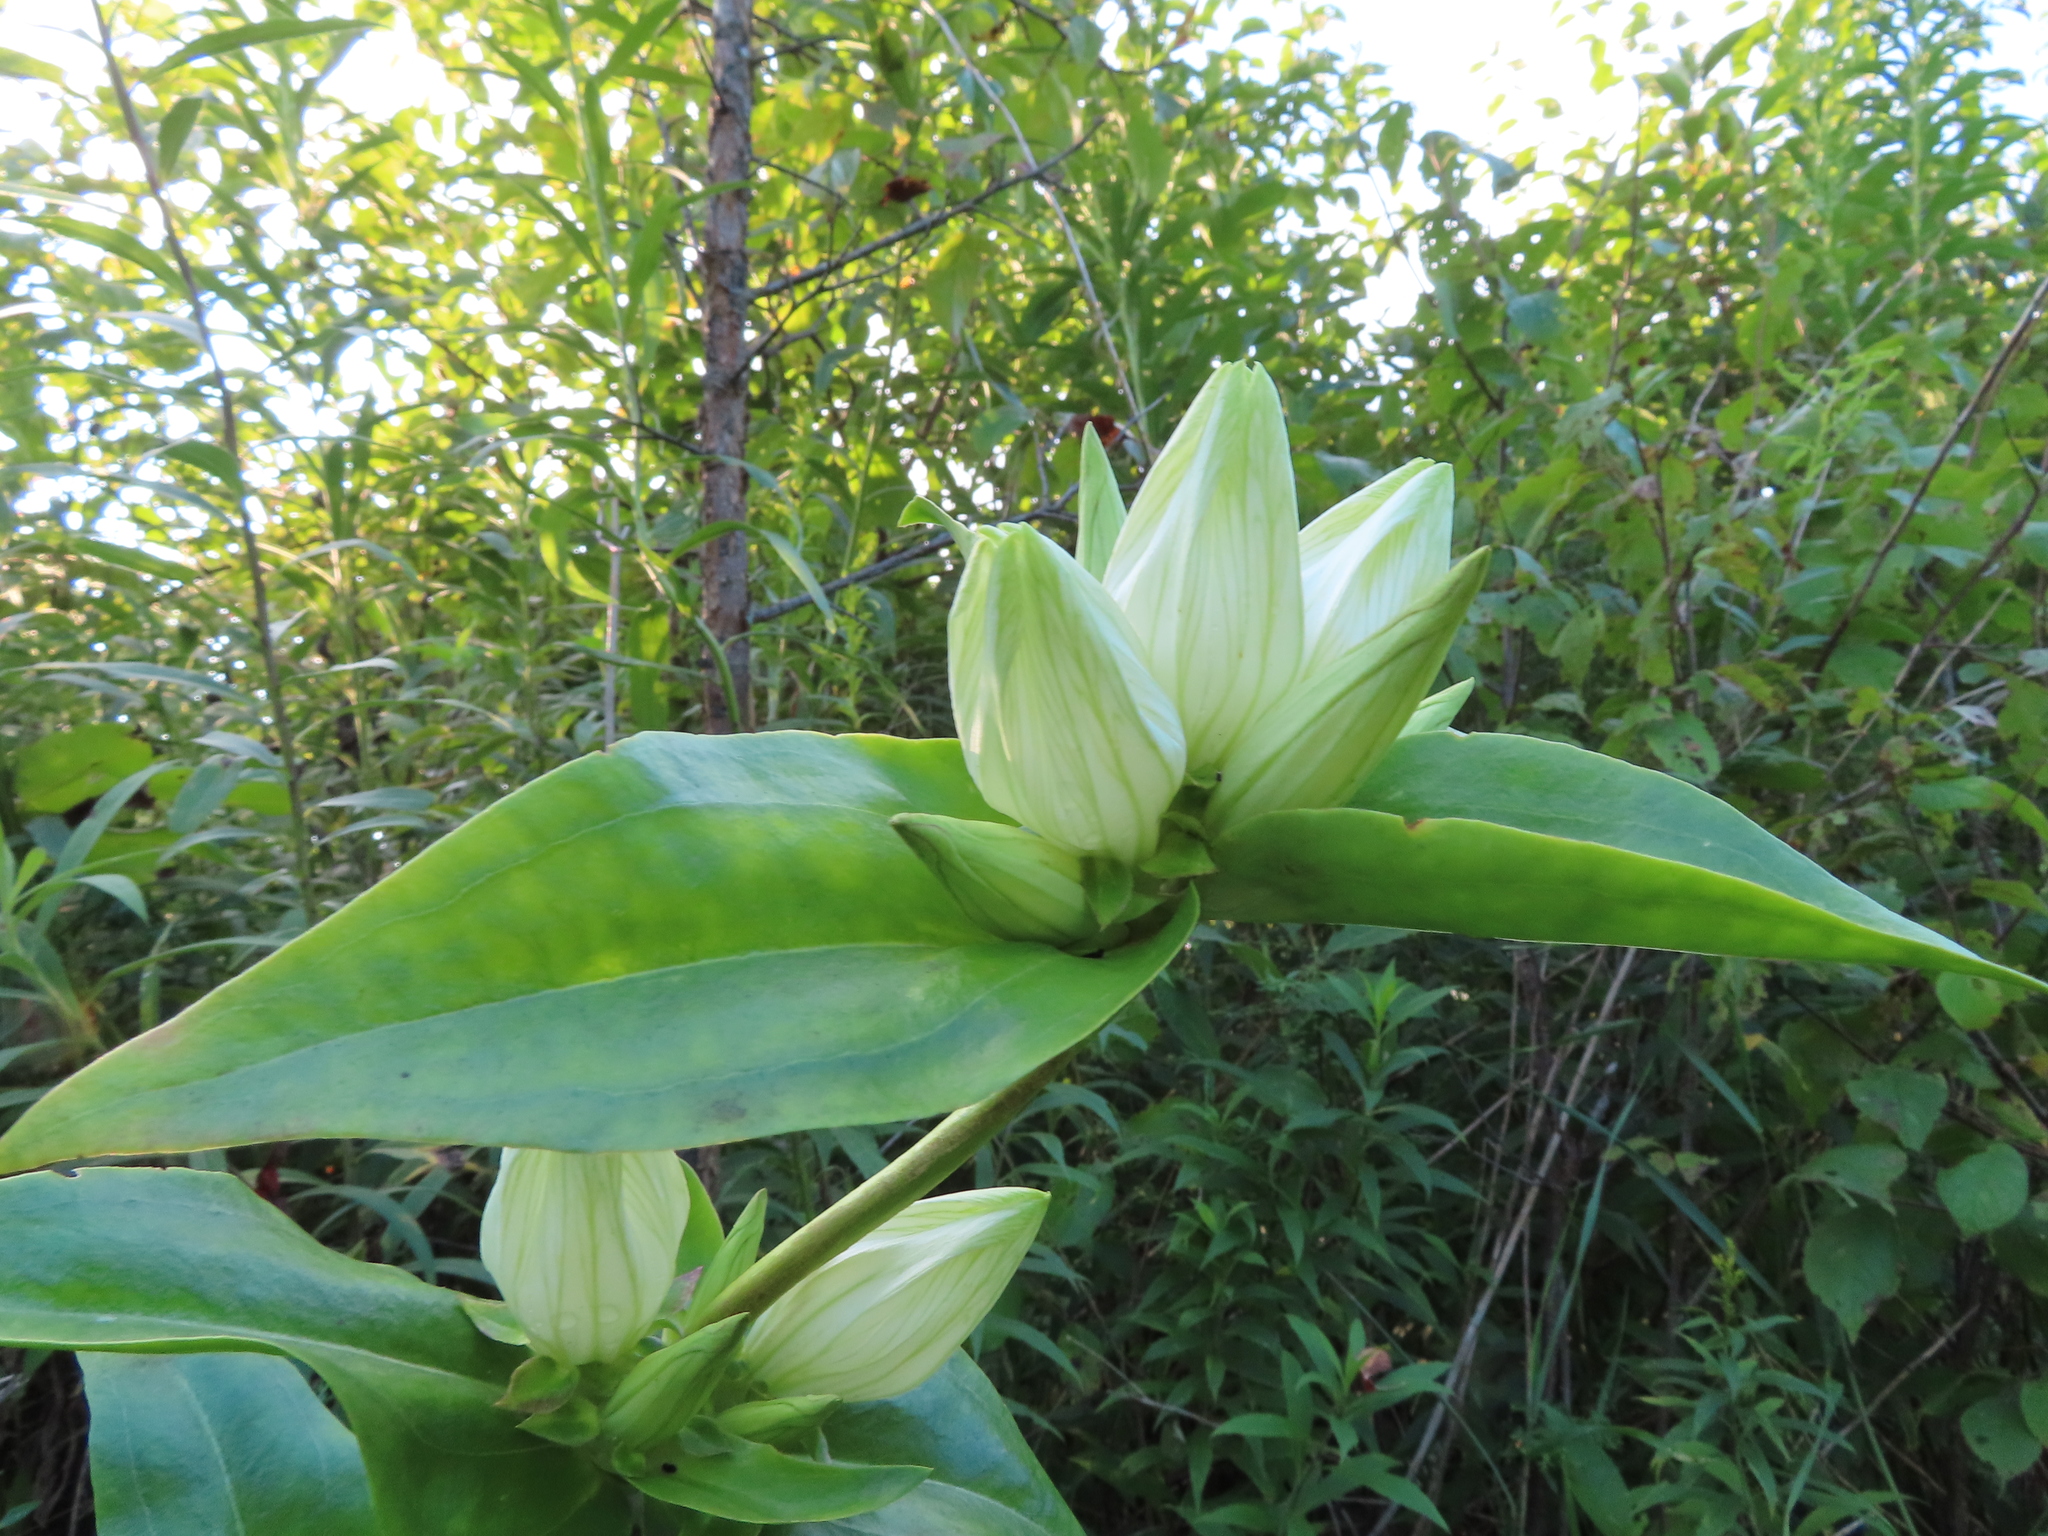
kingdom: Plantae
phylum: Tracheophyta
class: Magnoliopsida
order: Gentianales
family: Gentianaceae
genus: Gentiana
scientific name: Gentiana alba
